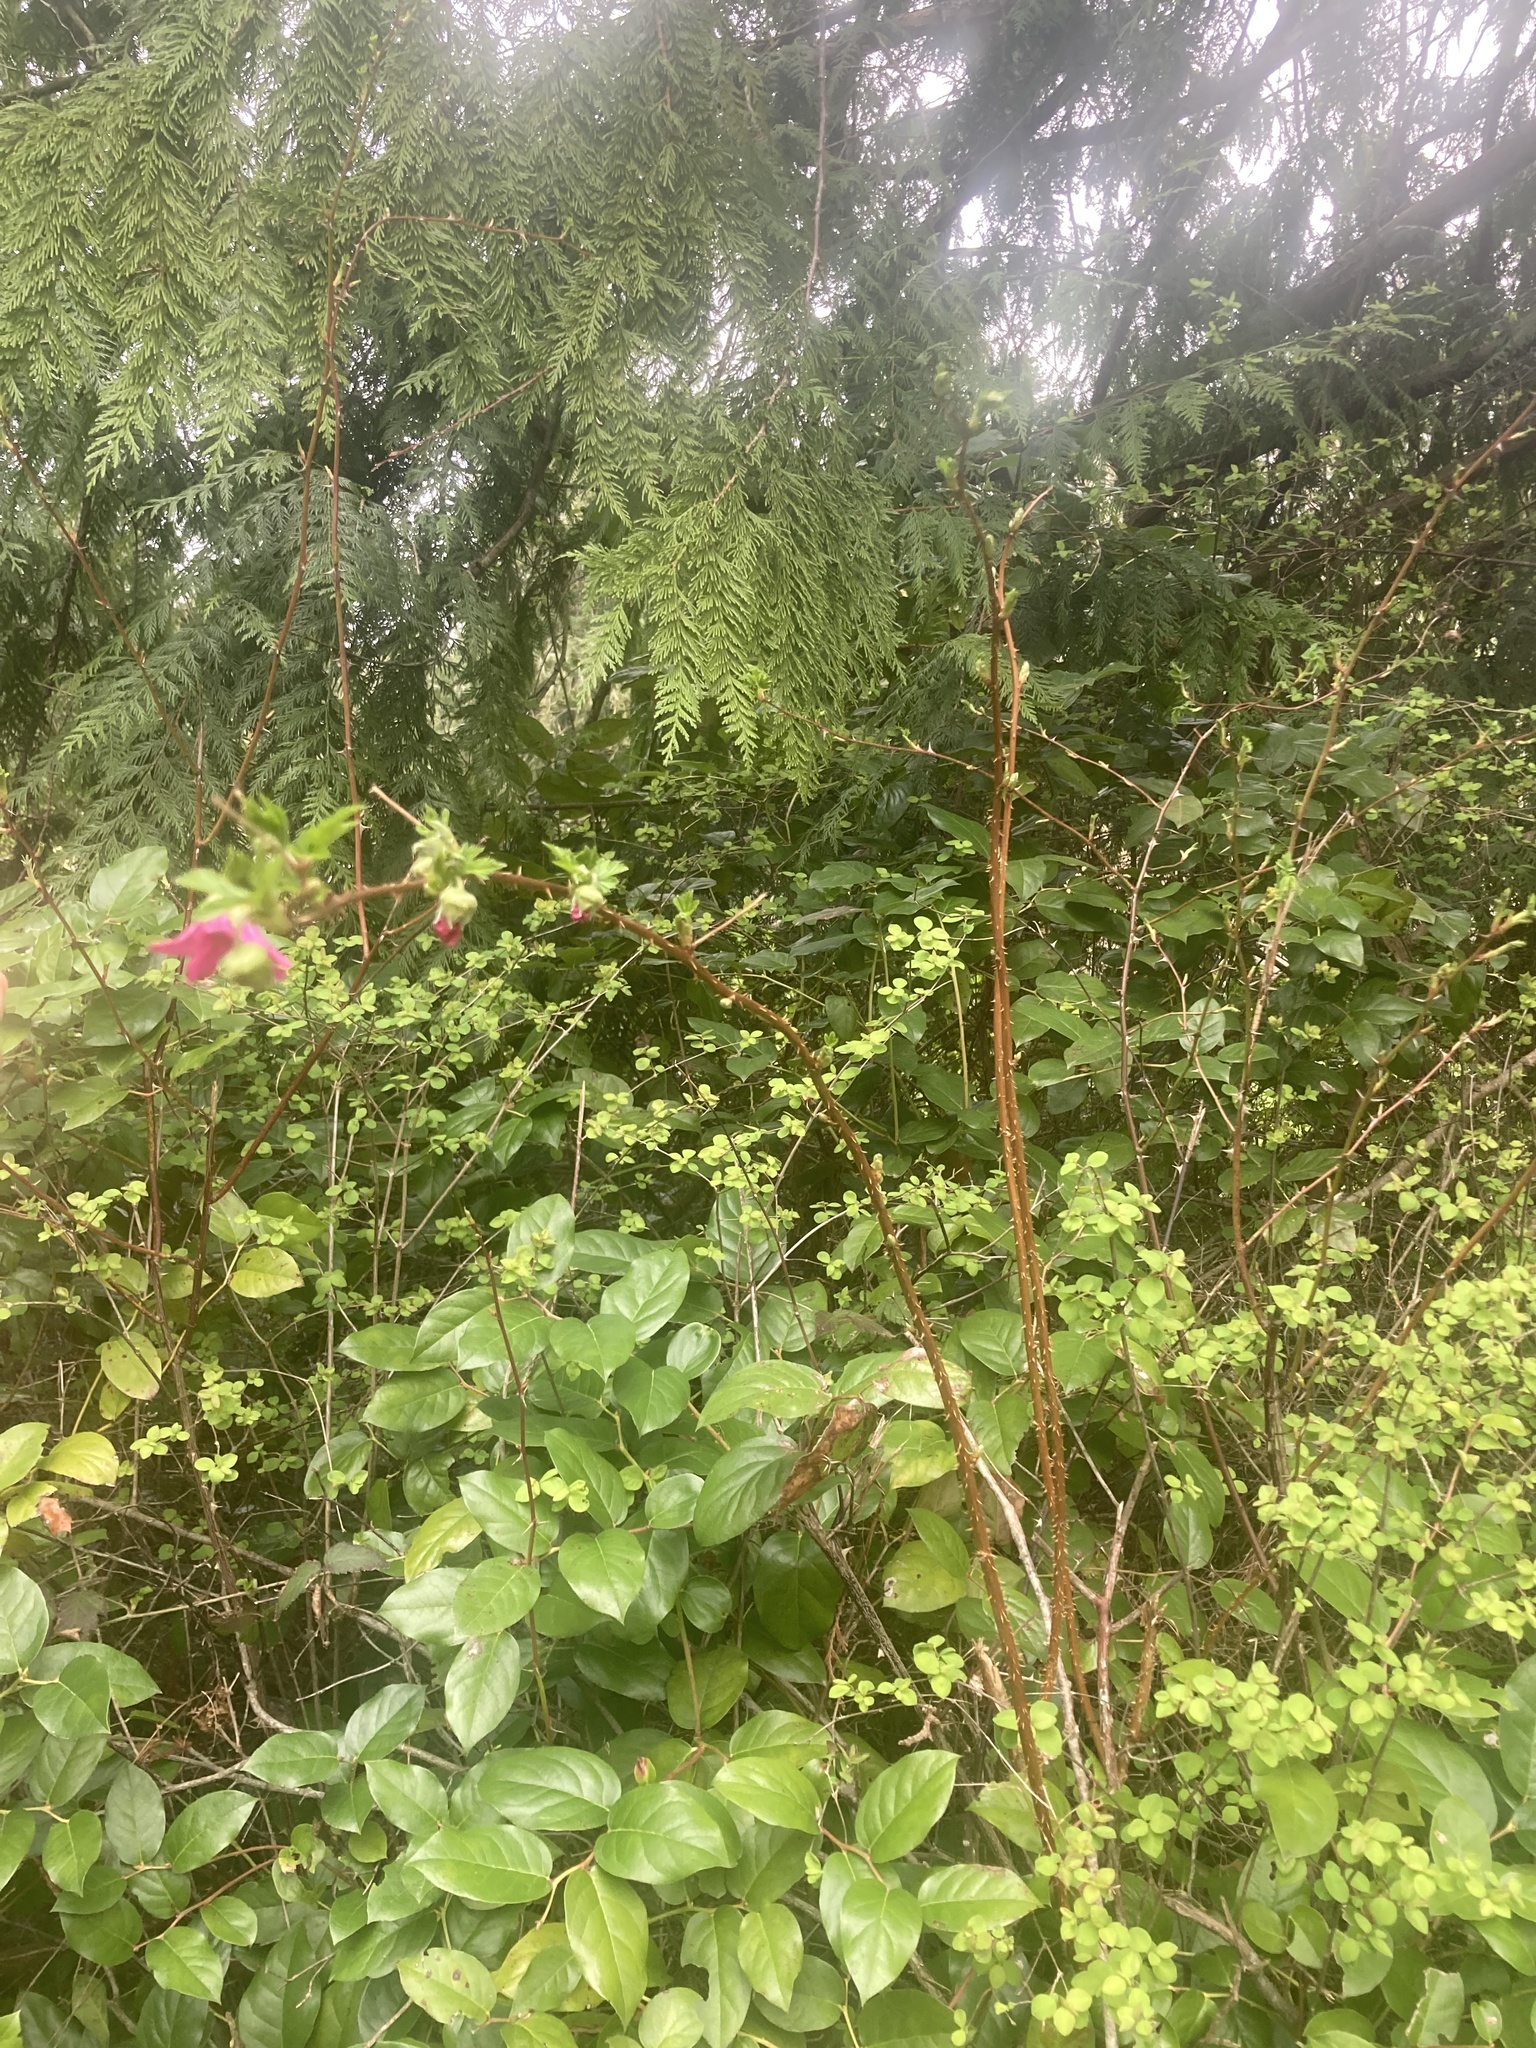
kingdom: Plantae
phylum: Tracheophyta
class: Magnoliopsida
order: Rosales
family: Rosaceae
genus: Rubus
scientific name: Rubus spectabilis
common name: Salmonberry
